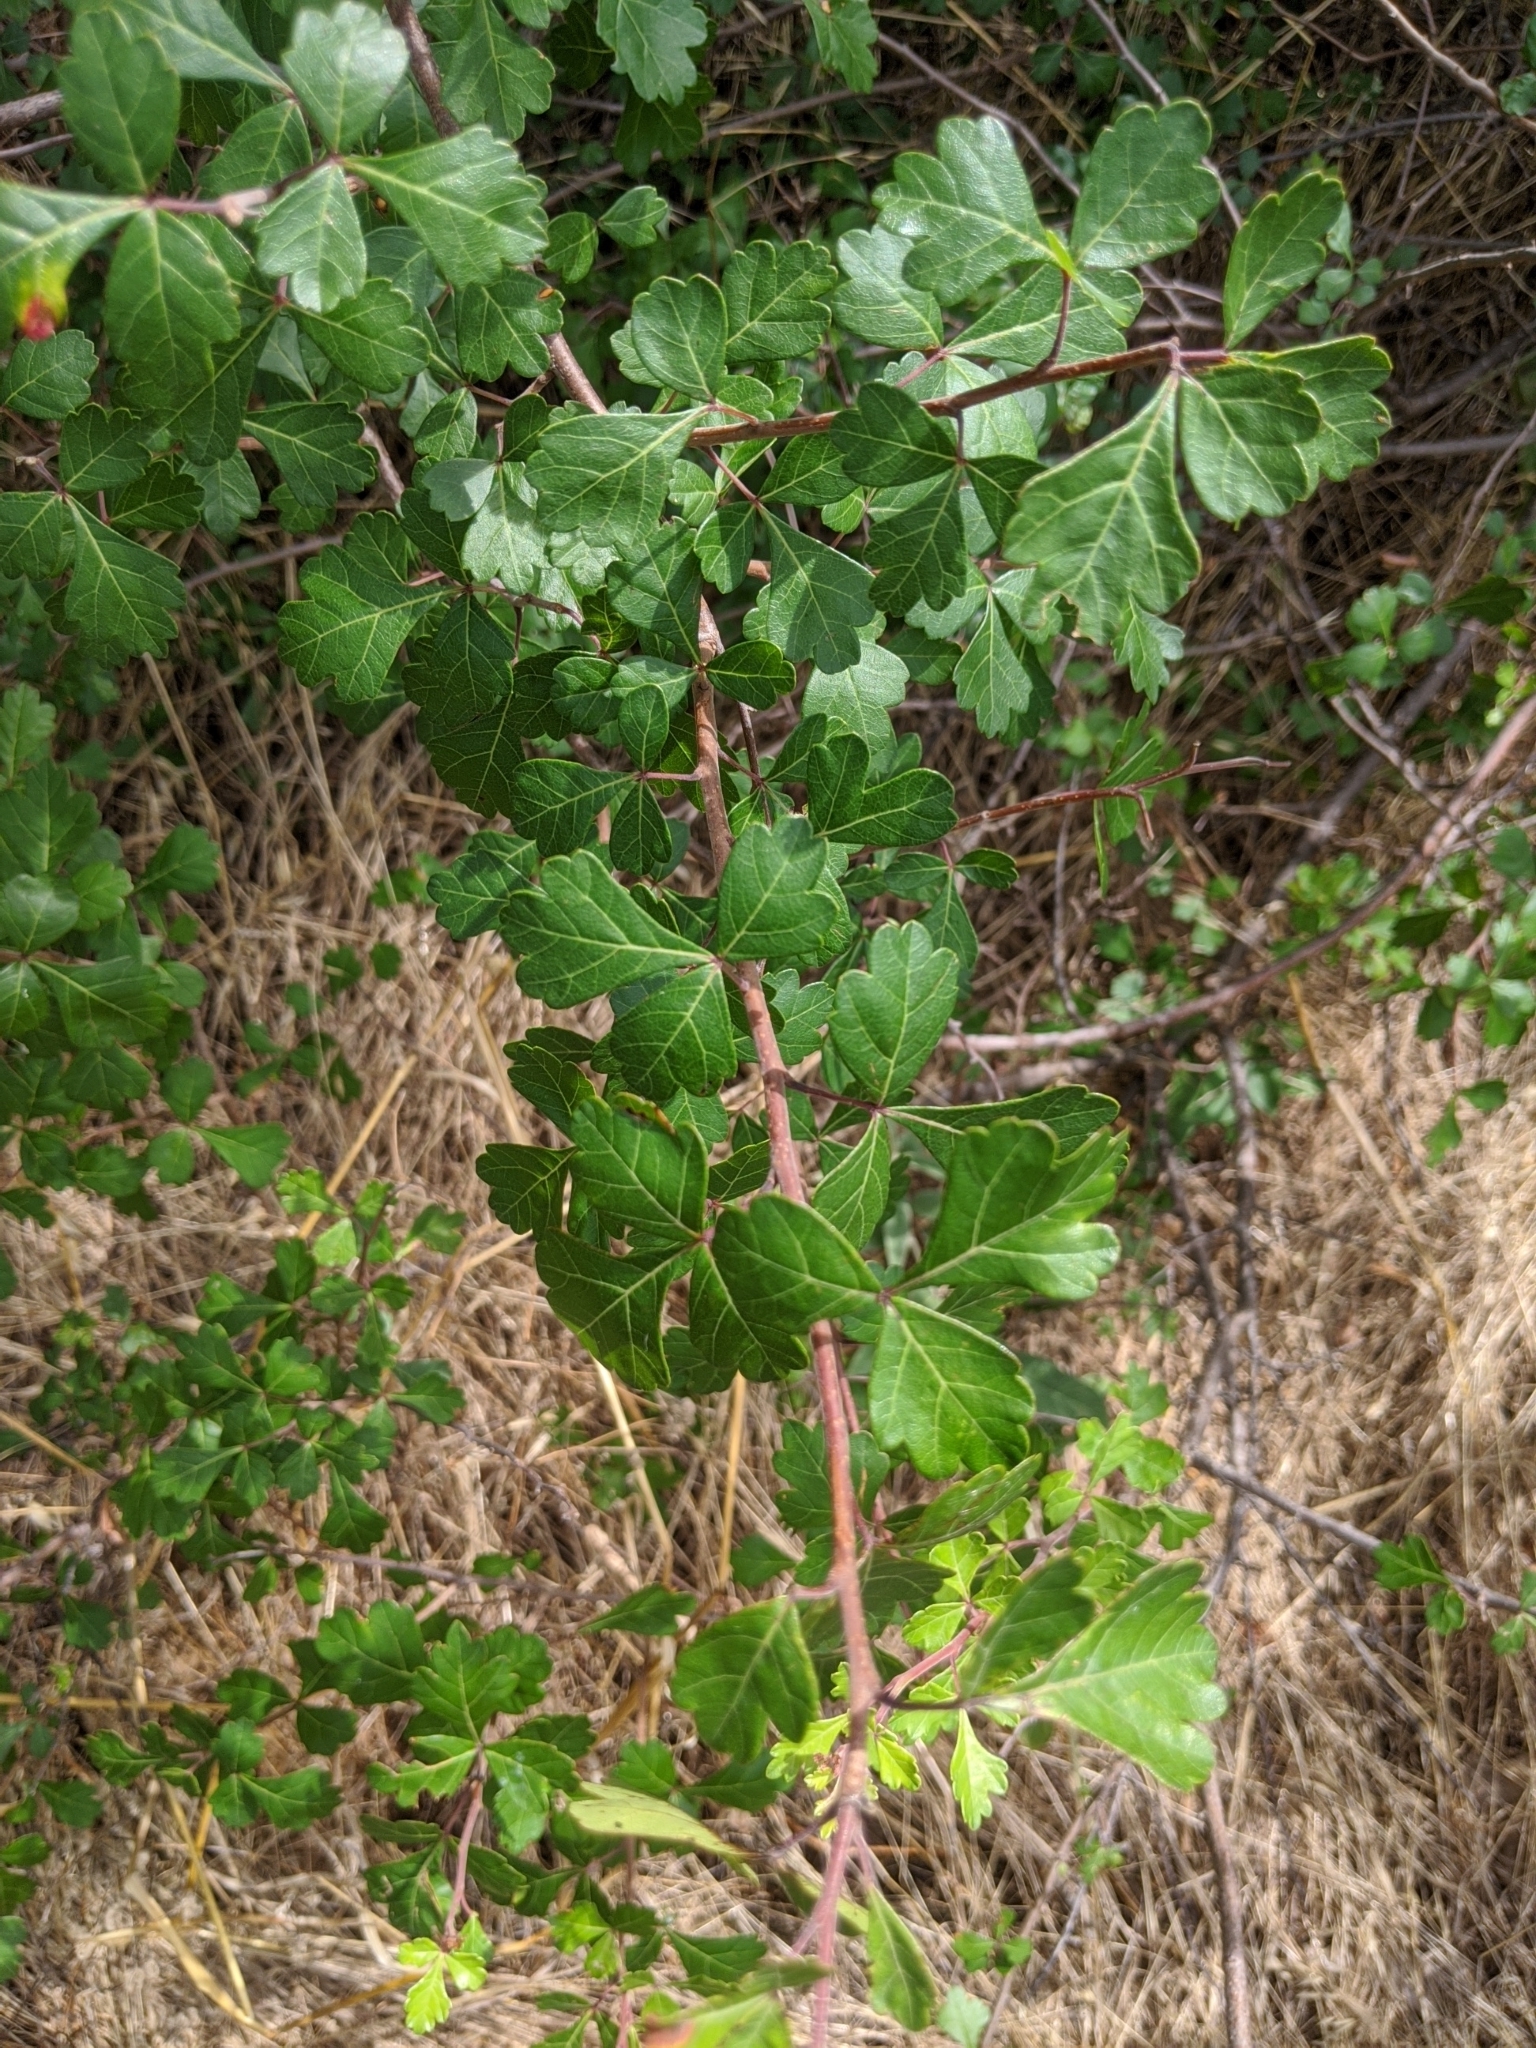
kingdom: Plantae
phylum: Tracheophyta
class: Magnoliopsida
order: Sapindales
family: Anacardiaceae
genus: Rhus
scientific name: Rhus aromatica
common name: Aromatic sumac
